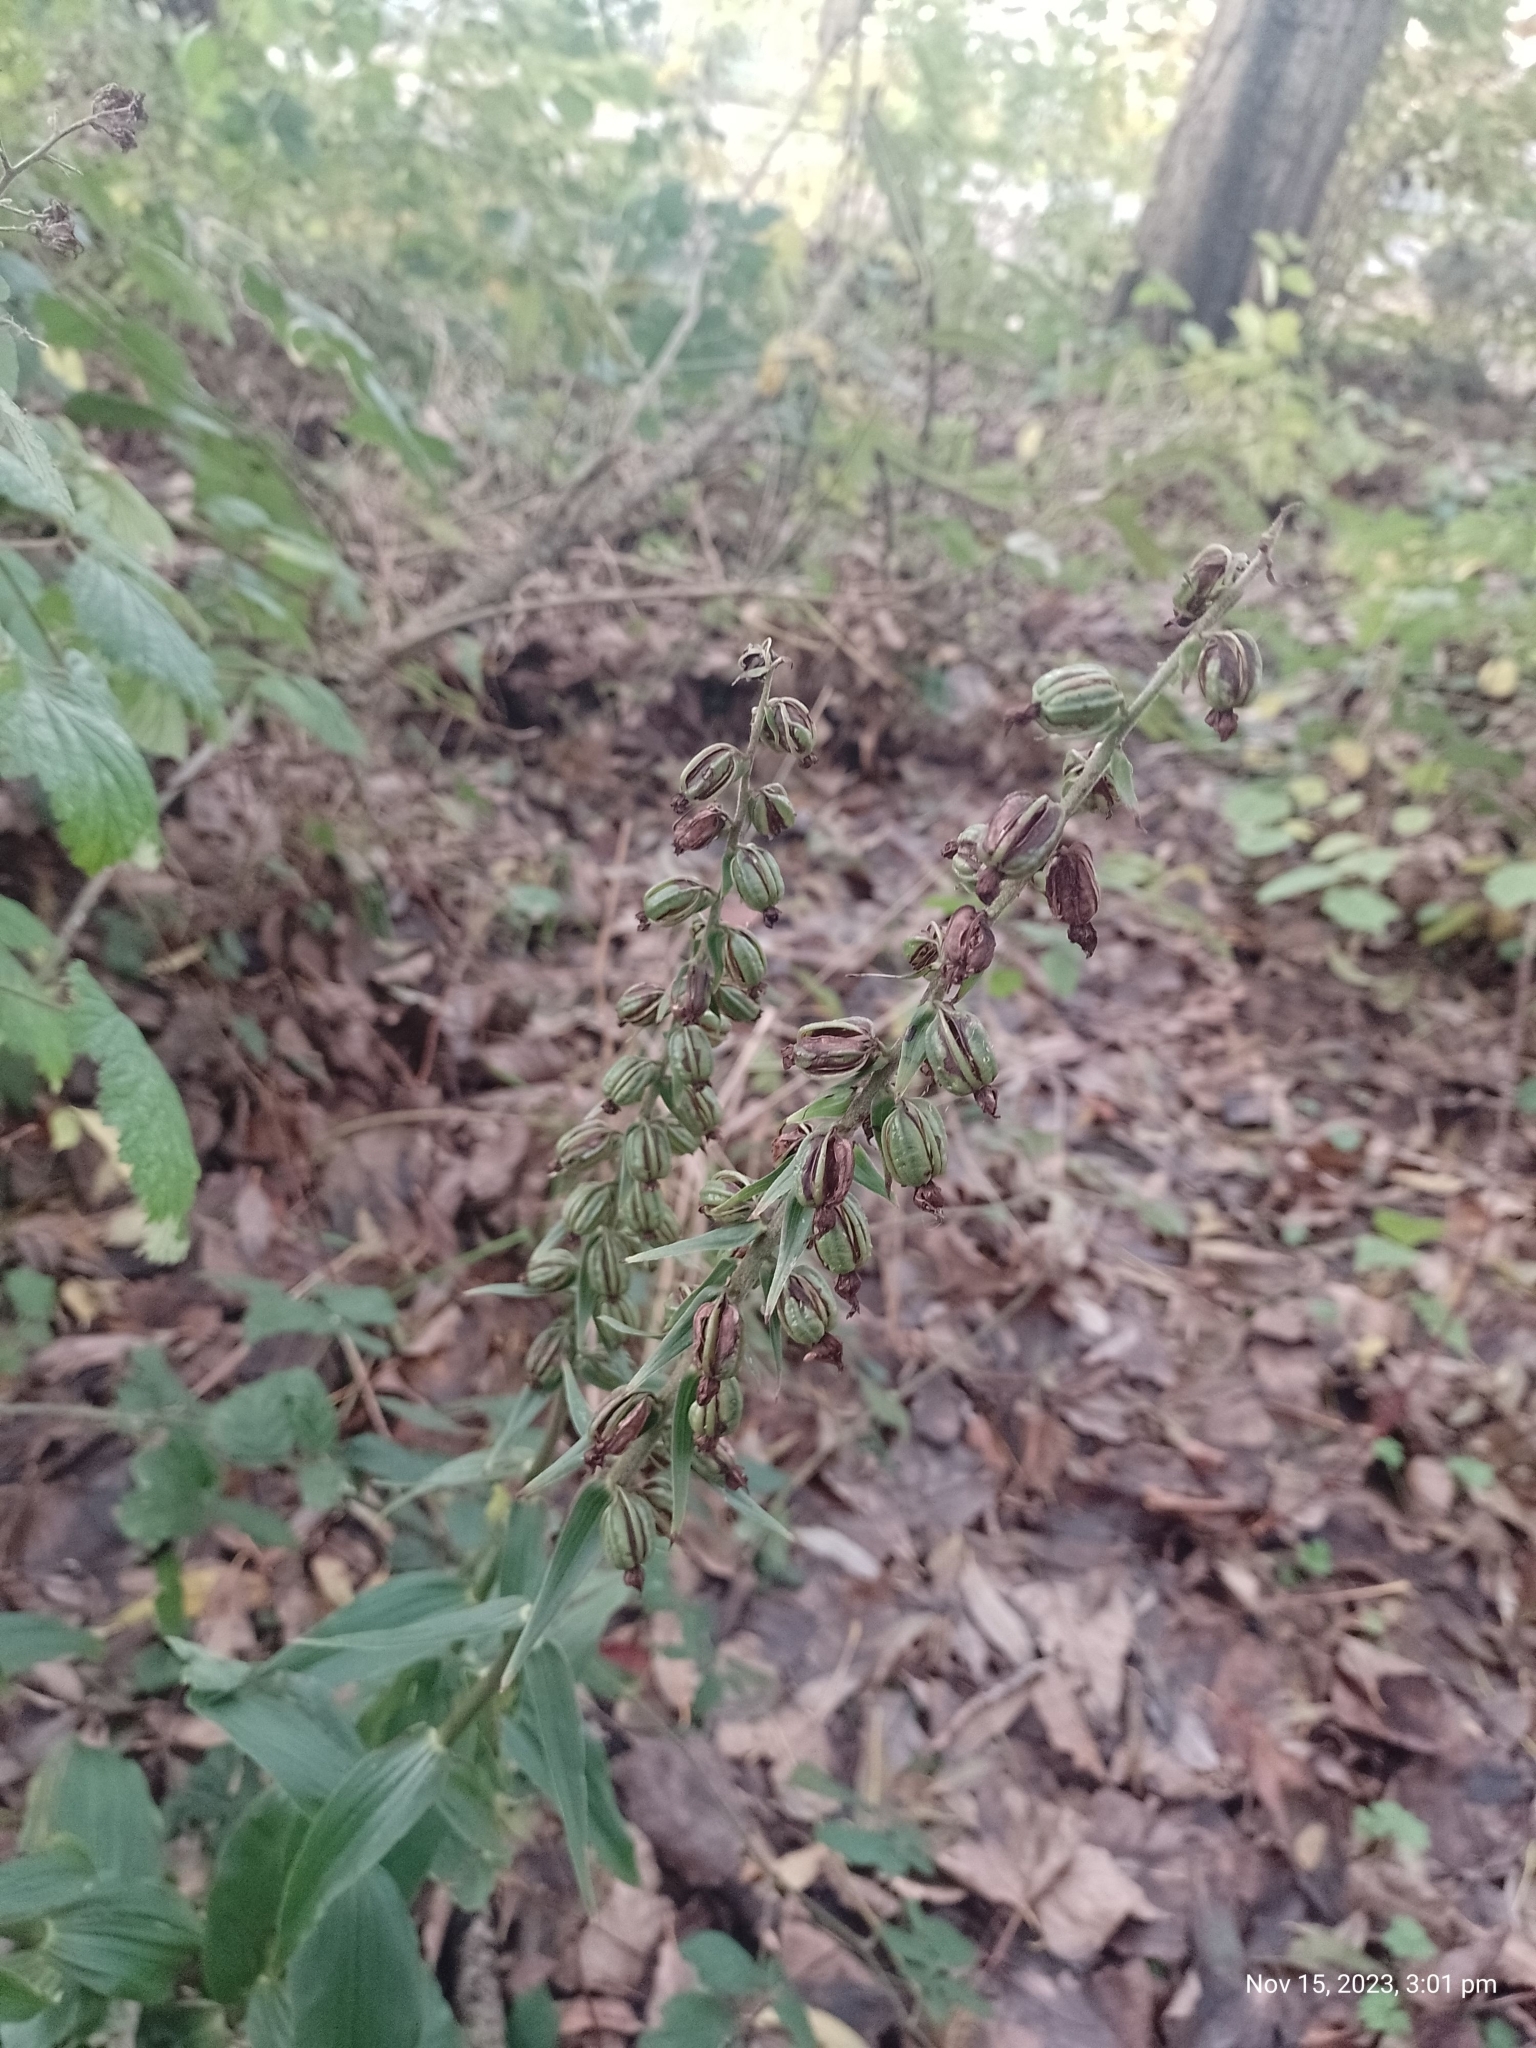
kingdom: Plantae
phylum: Tracheophyta
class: Liliopsida
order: Asparagales
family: Orchidaceae
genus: Epipactis
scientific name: Epipactis helleborine
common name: Broad-leaved helleborine
